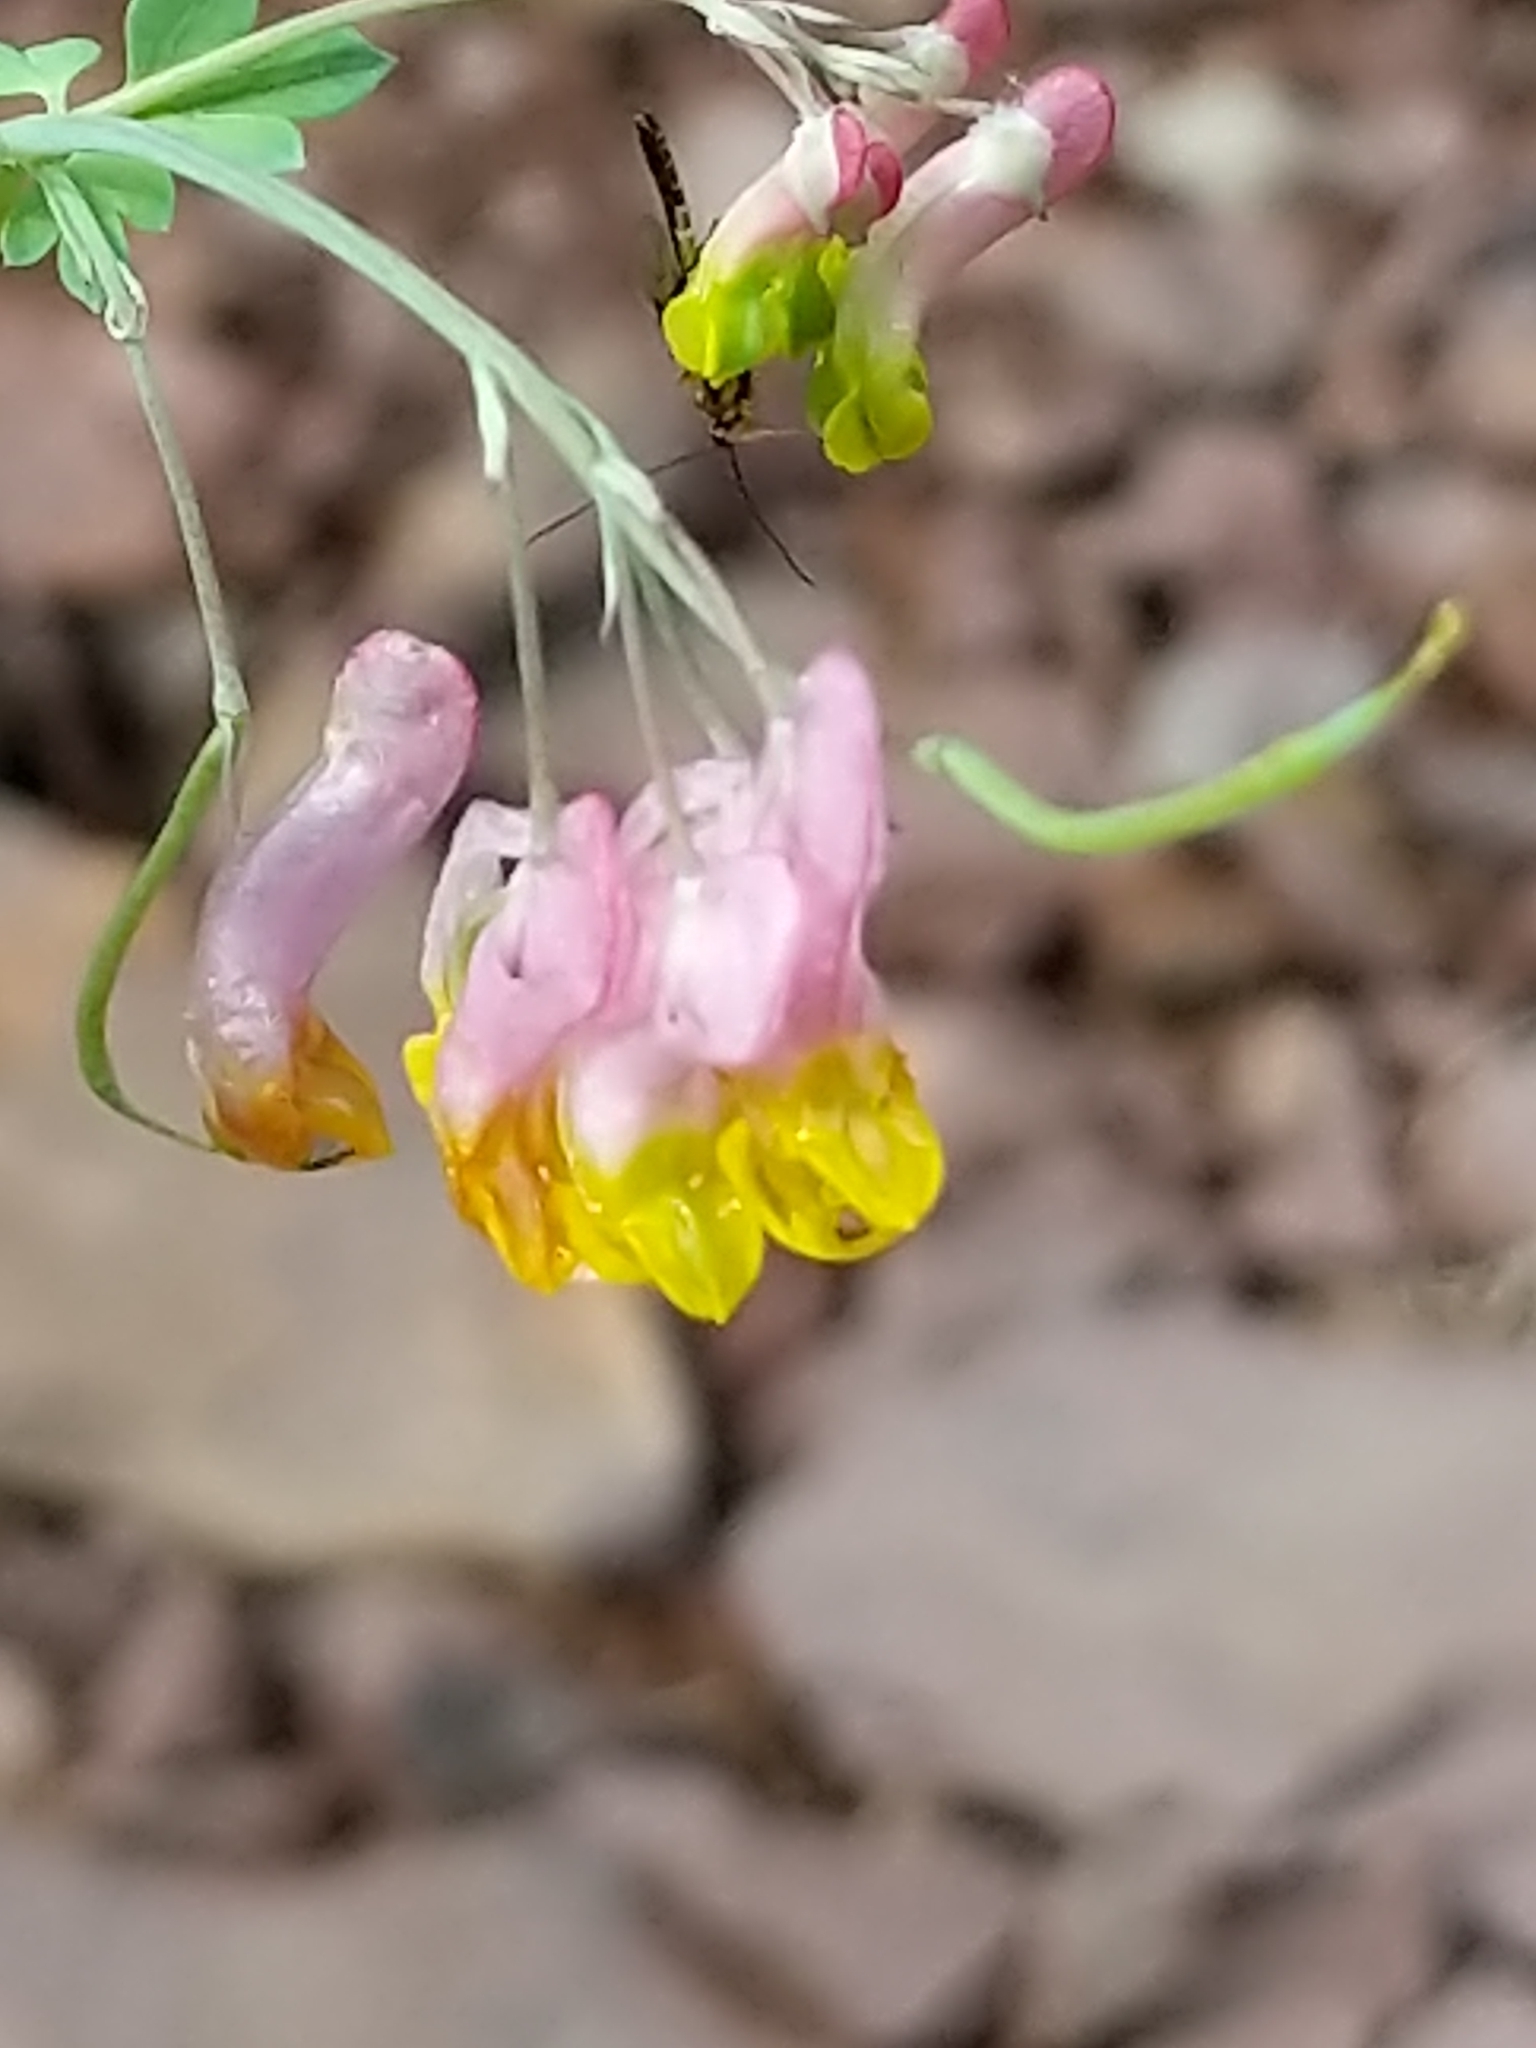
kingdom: Plantae
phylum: Tracheophyta
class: Magnoliopsida
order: Ranunculales
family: Papaveraceae
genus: Capnoides
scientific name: Capnoides sempervirens
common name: Rock harlequin
